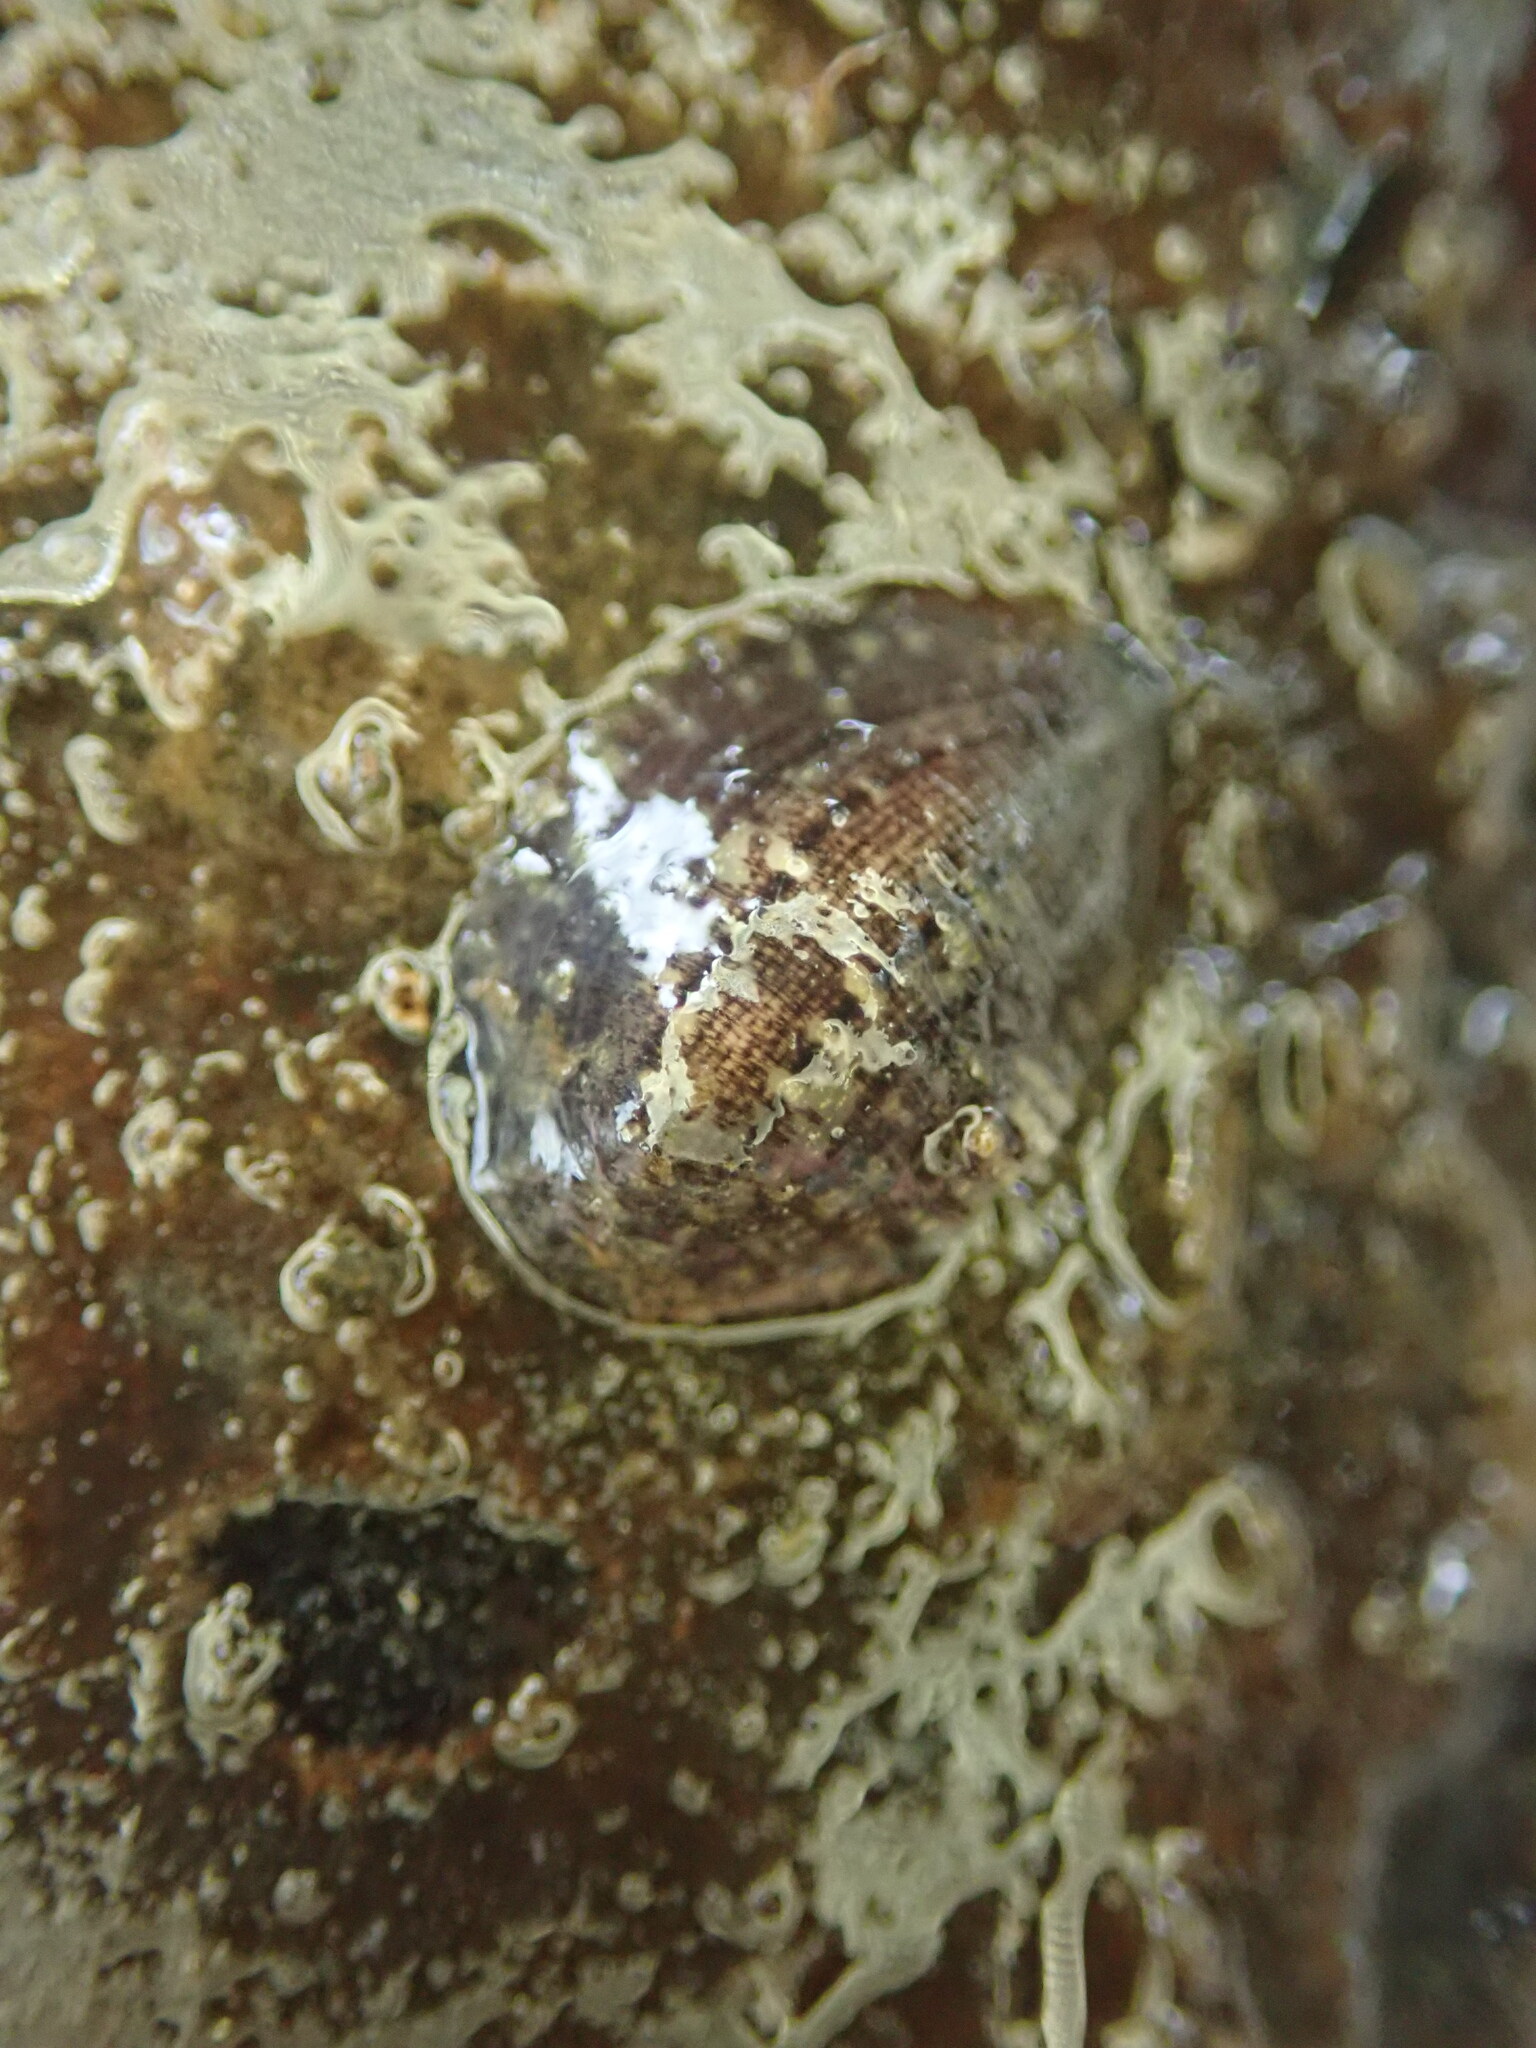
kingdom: Animalia
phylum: Annelida
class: Clitellata
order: Rhynchobdellida
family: Glossiphoniidae
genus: Glossiphonia
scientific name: Glossiphonia complanata
